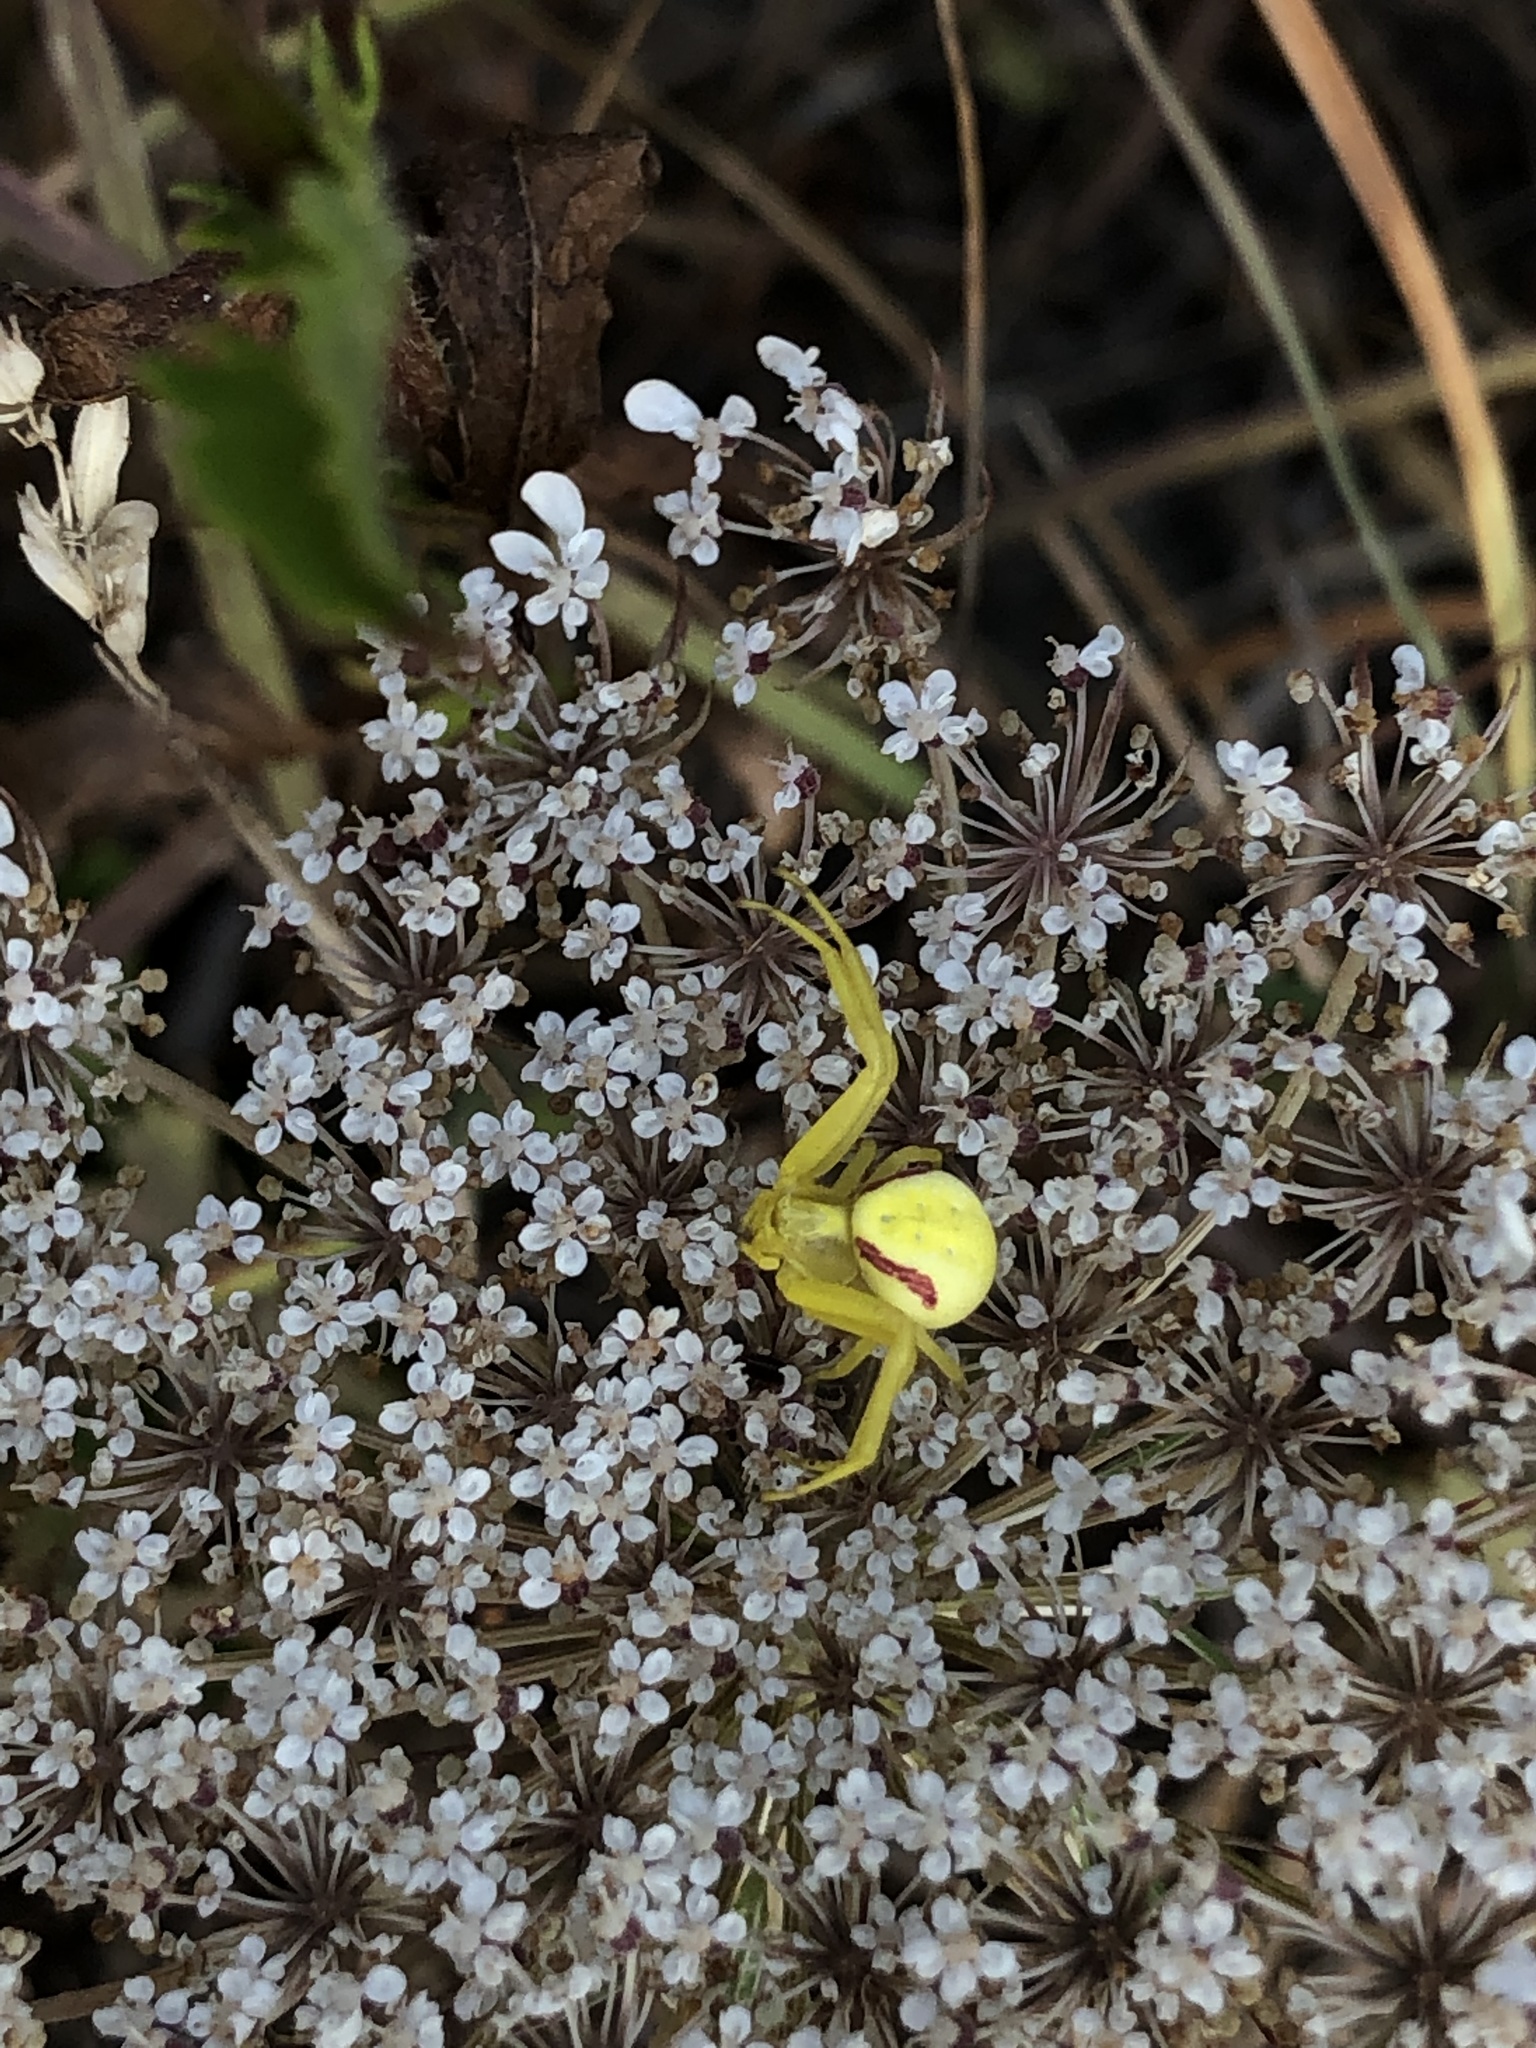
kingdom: Animalia
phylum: Arthropoda
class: Arachnida
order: Araneae
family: Thomisidae
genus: Misumena
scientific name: Misumena vatia
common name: Goldenrod crab spider
